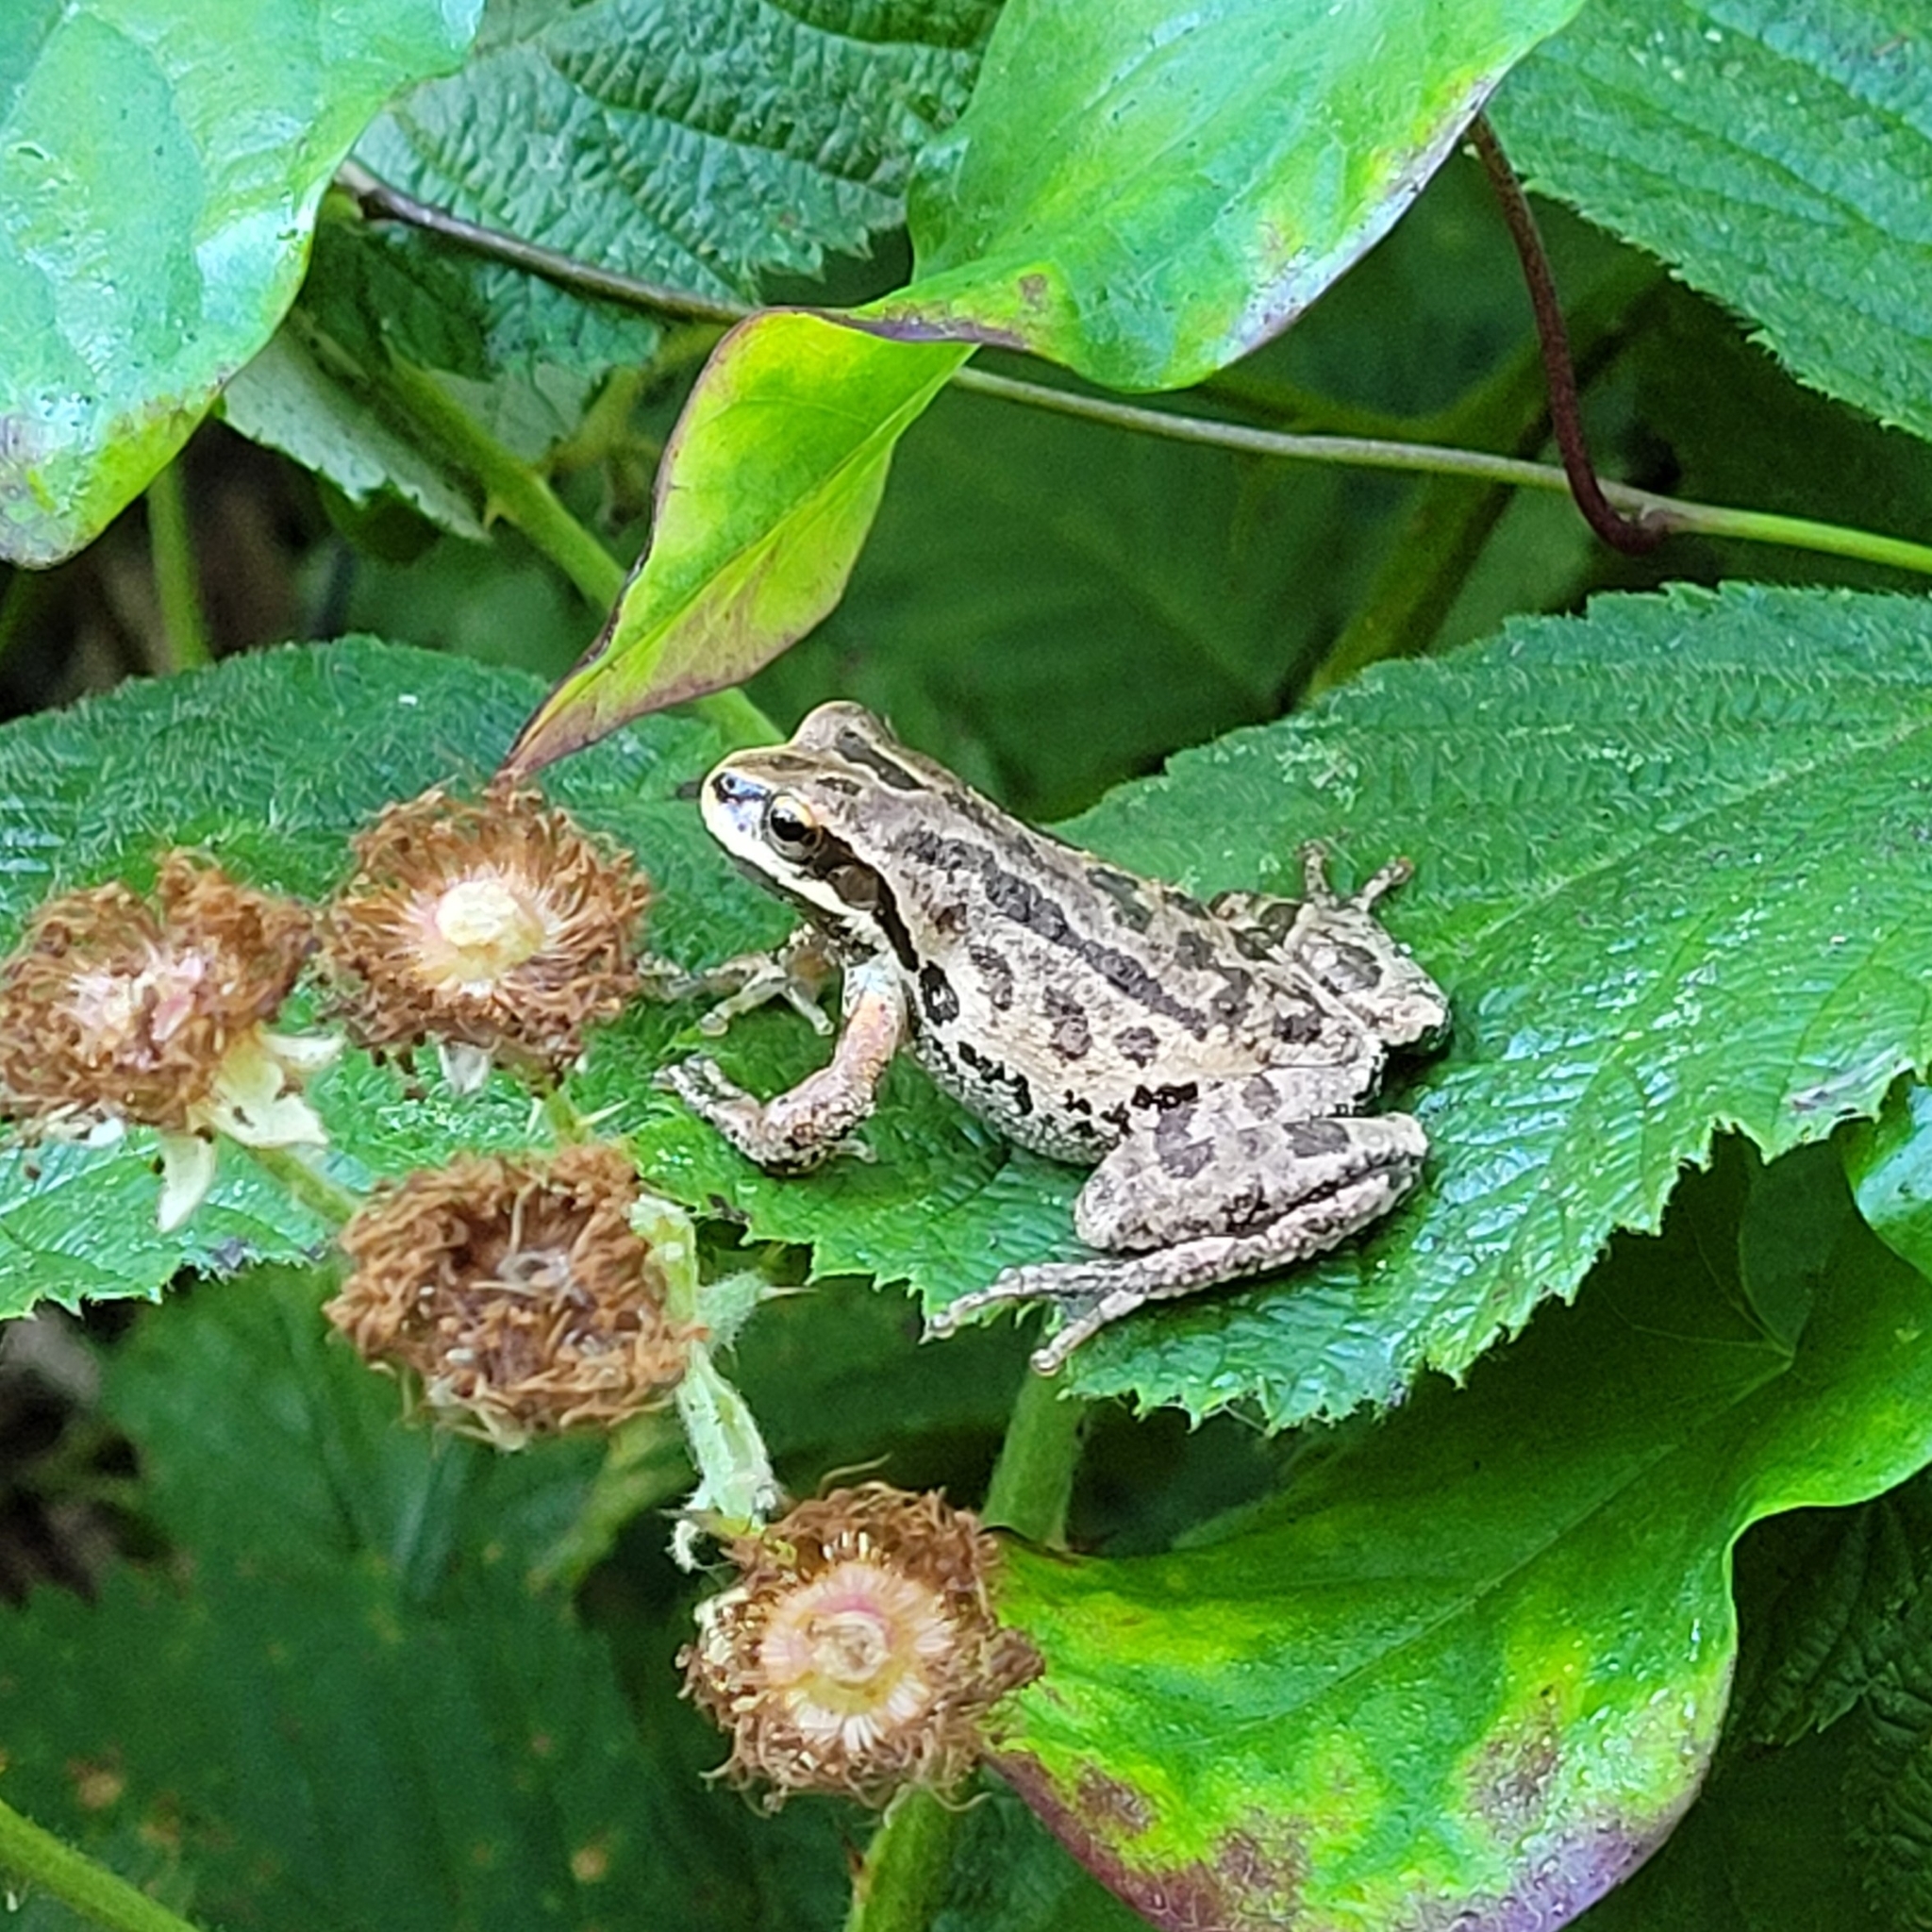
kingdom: Animalia
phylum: Chordata
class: Amphibia
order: Anura
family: Hylidae
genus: Pseudacris
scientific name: Pseudacris regilla
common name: Pacific chorus frog
